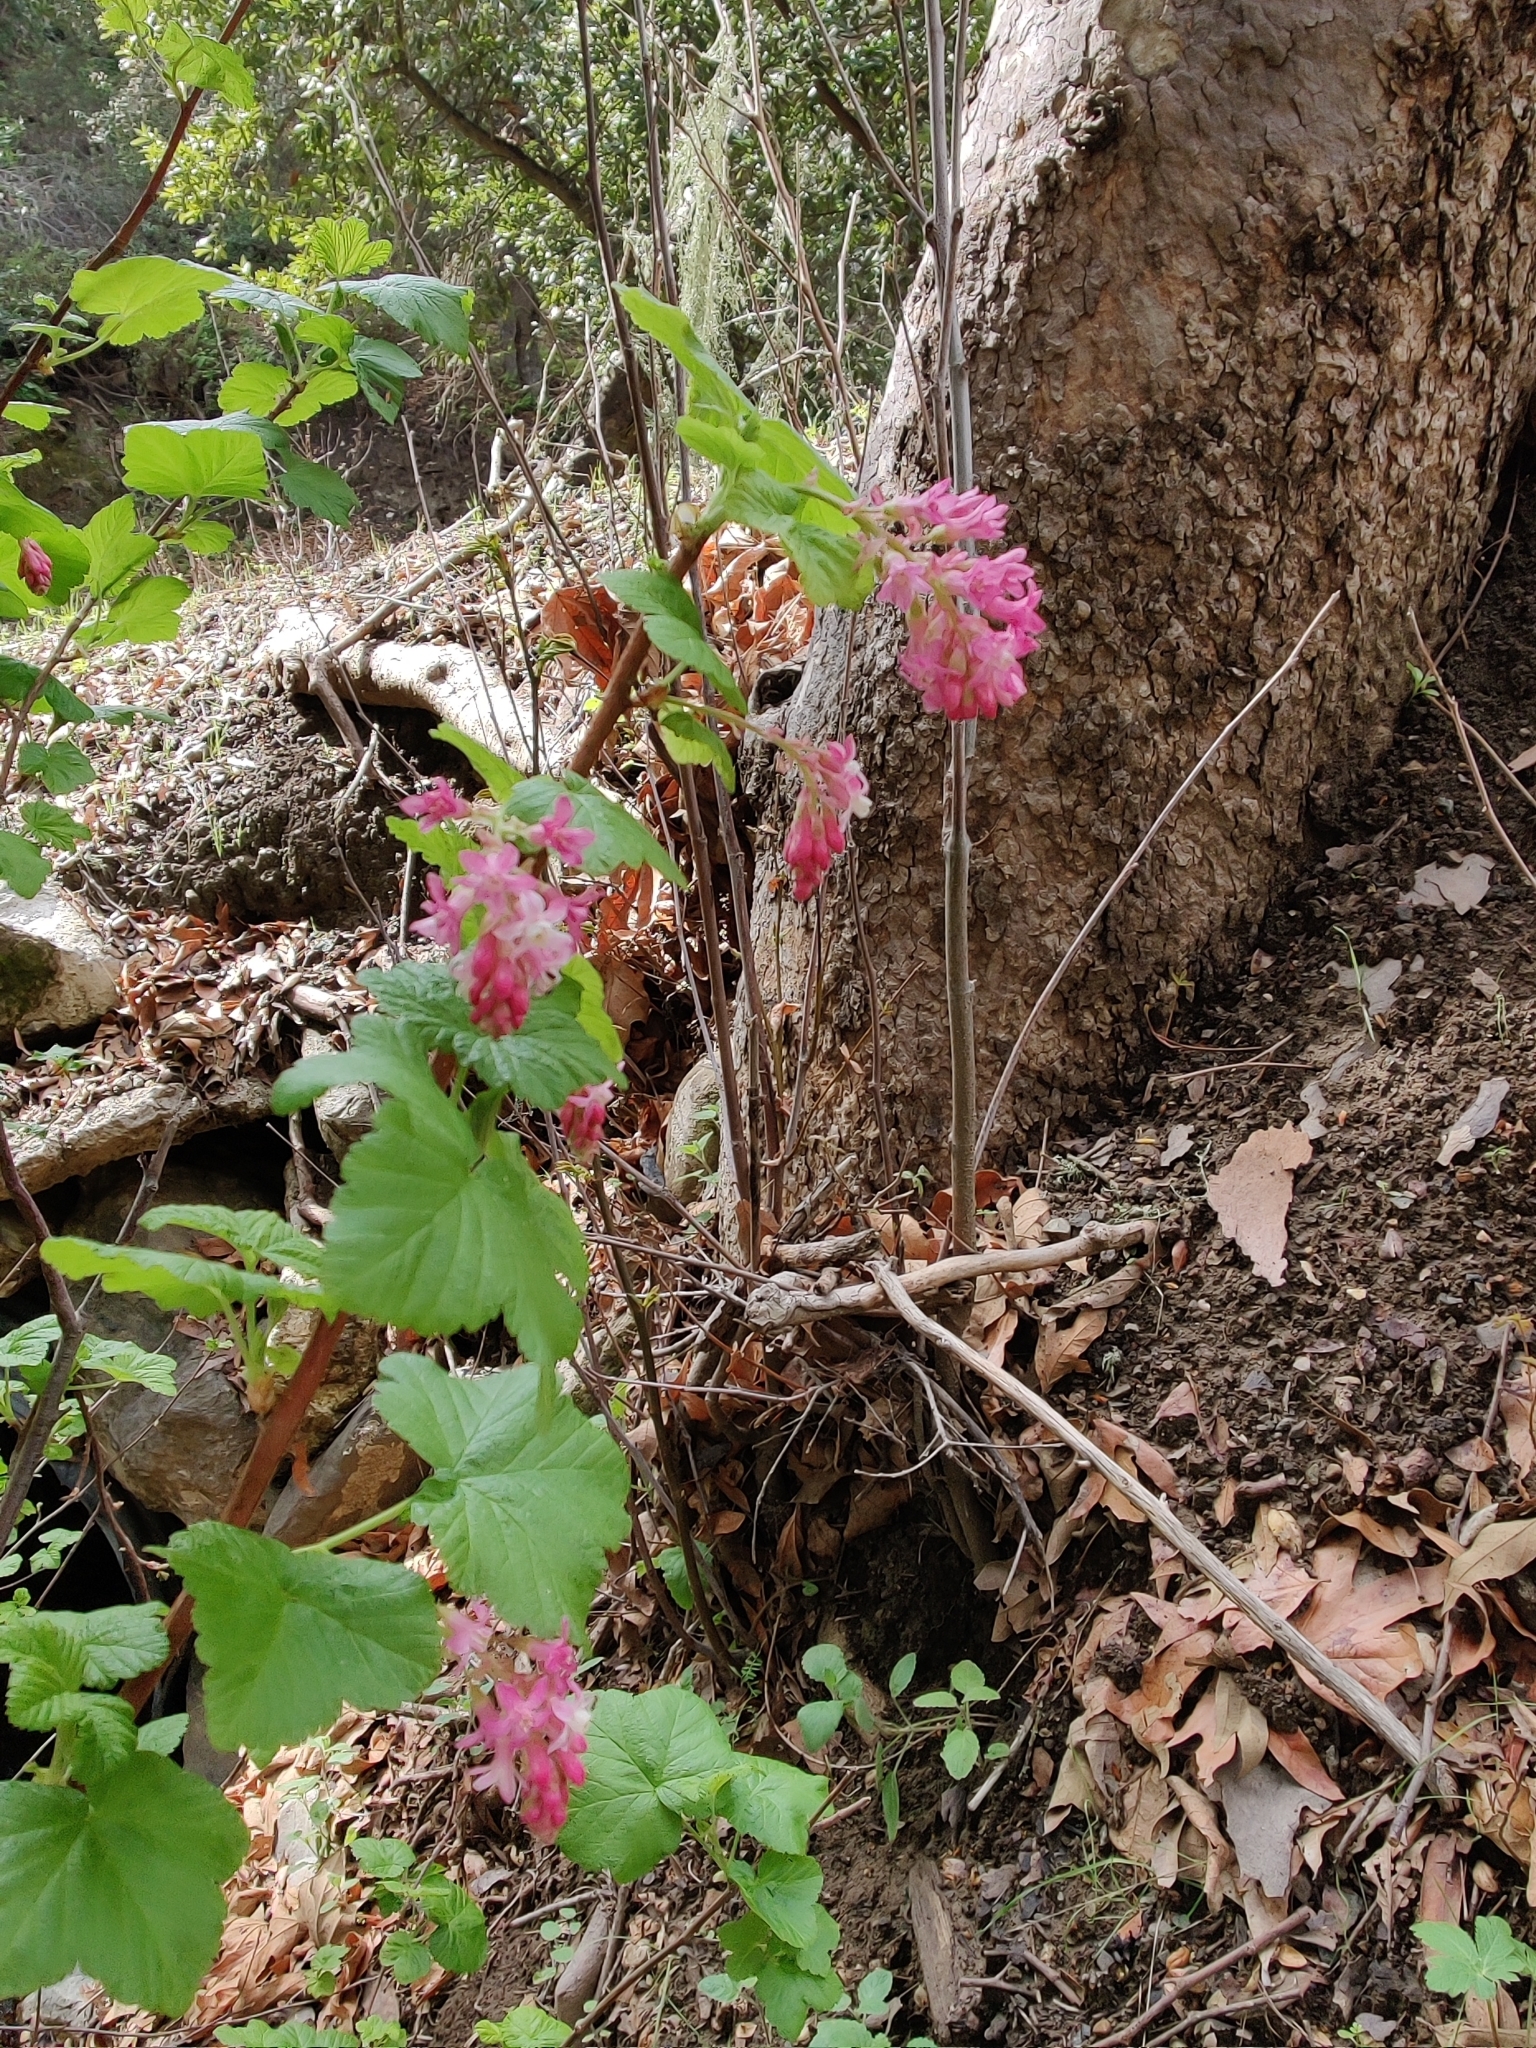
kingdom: Plantae
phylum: Tracheophyta
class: Magnoliopsida
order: Saxifragales
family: Grossulariaceae
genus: Ribes
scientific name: Ribes sanguineum
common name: Flowering currant
